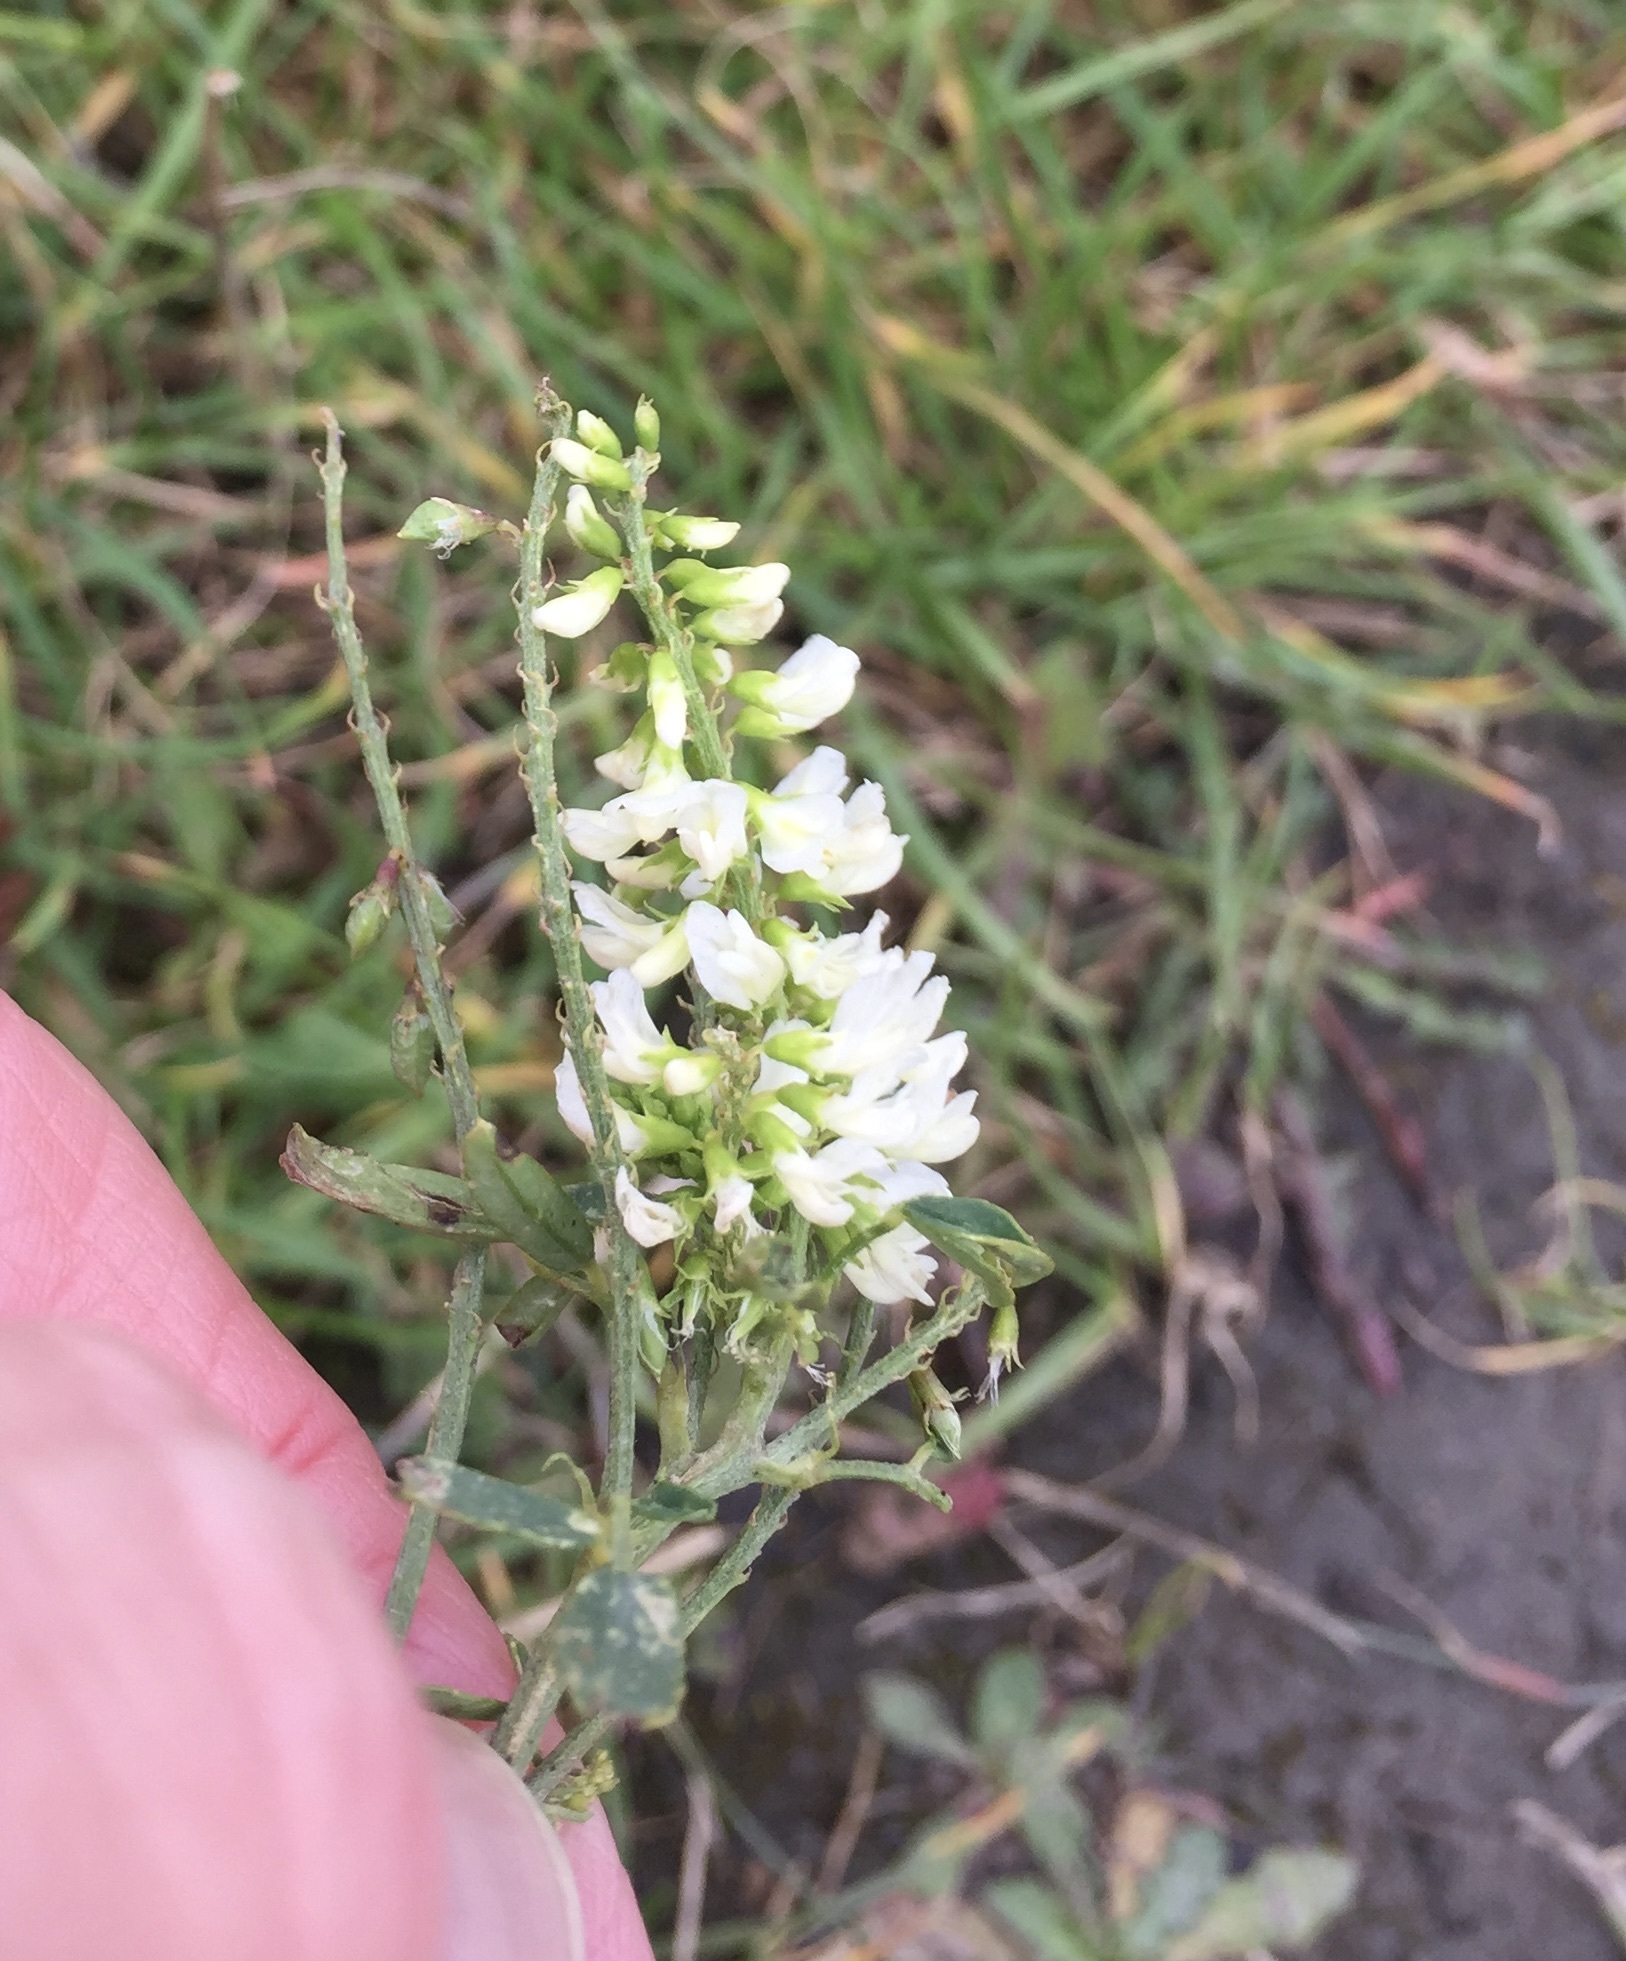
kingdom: Plantae
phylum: Tracheophyta
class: Magnoliopsida
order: Fabales
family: Fabaceae
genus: Melilotus
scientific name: Melilotus albus
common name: White melilot
